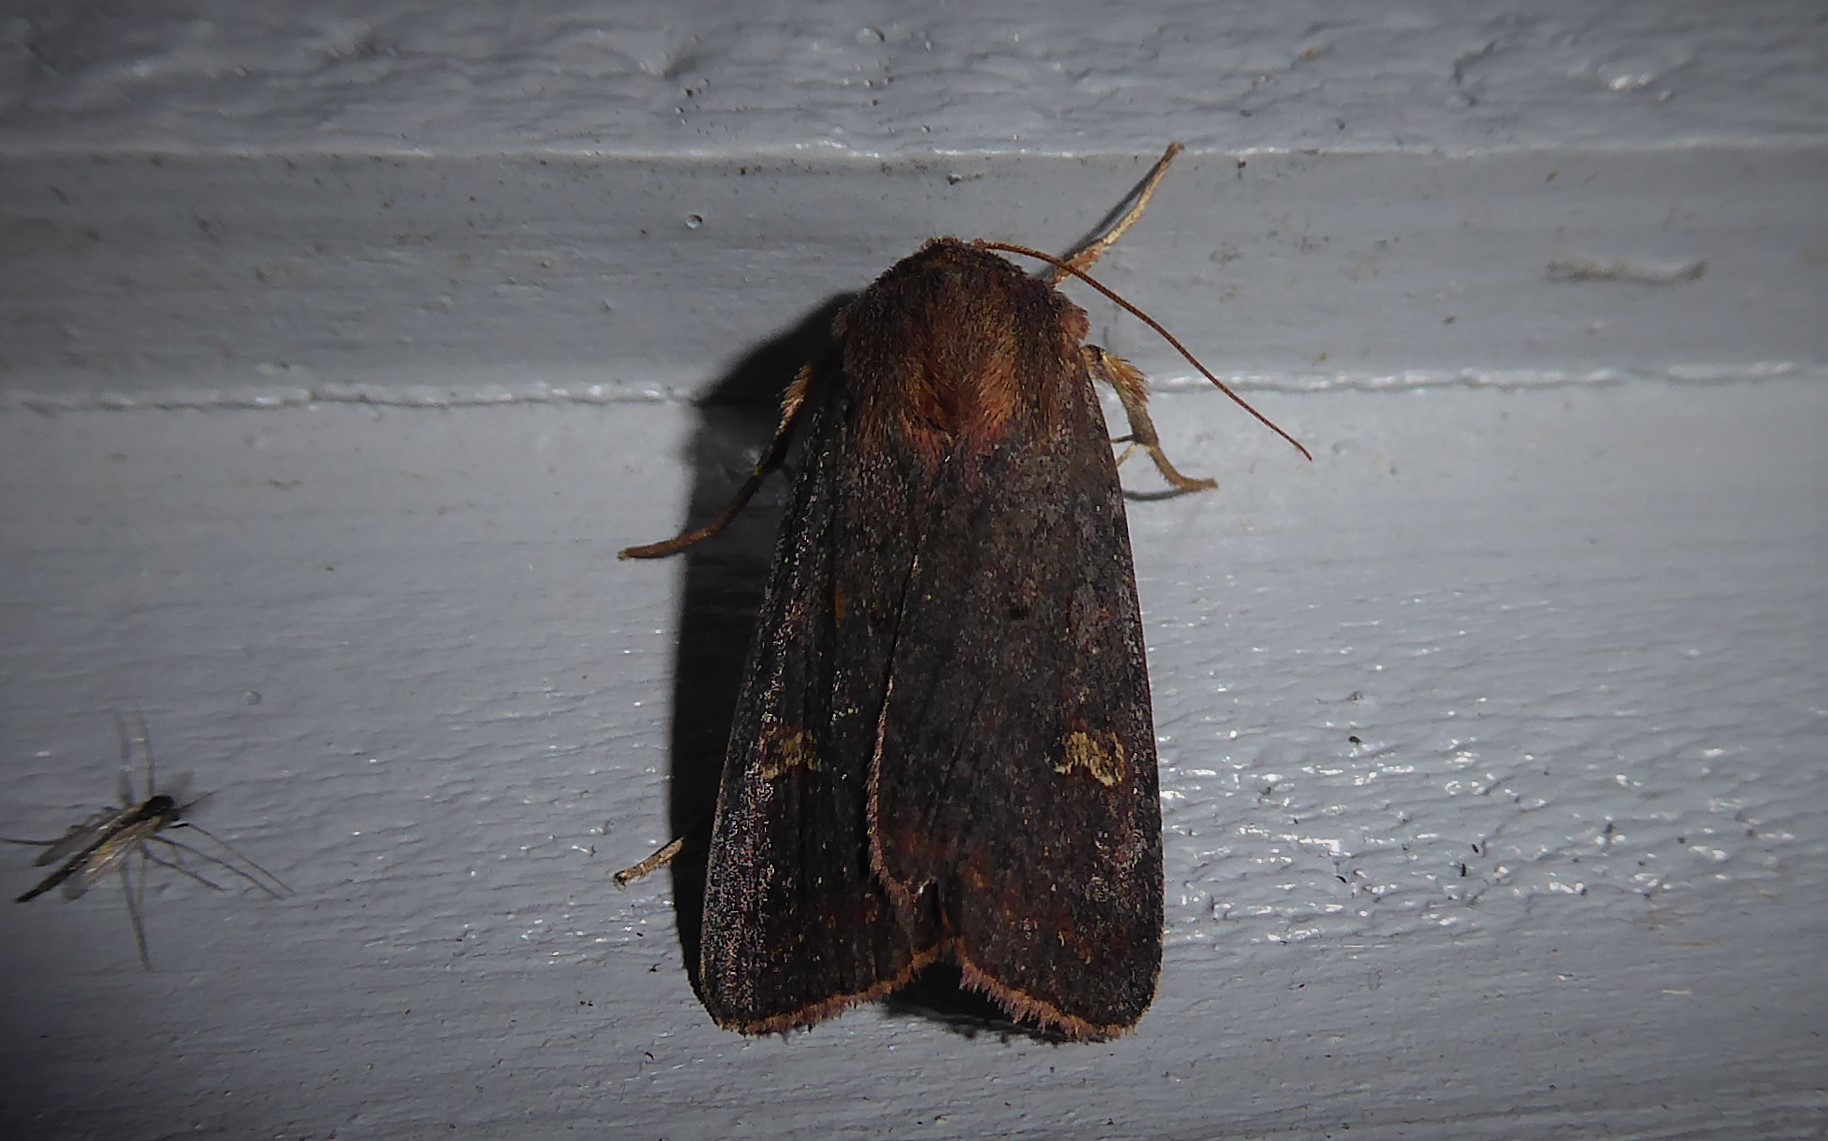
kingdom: Animalia
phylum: Arthropoda
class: Insecta
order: Lepidoptera
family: Noctuidae
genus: Diarsia
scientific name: Diarsia intermixta
